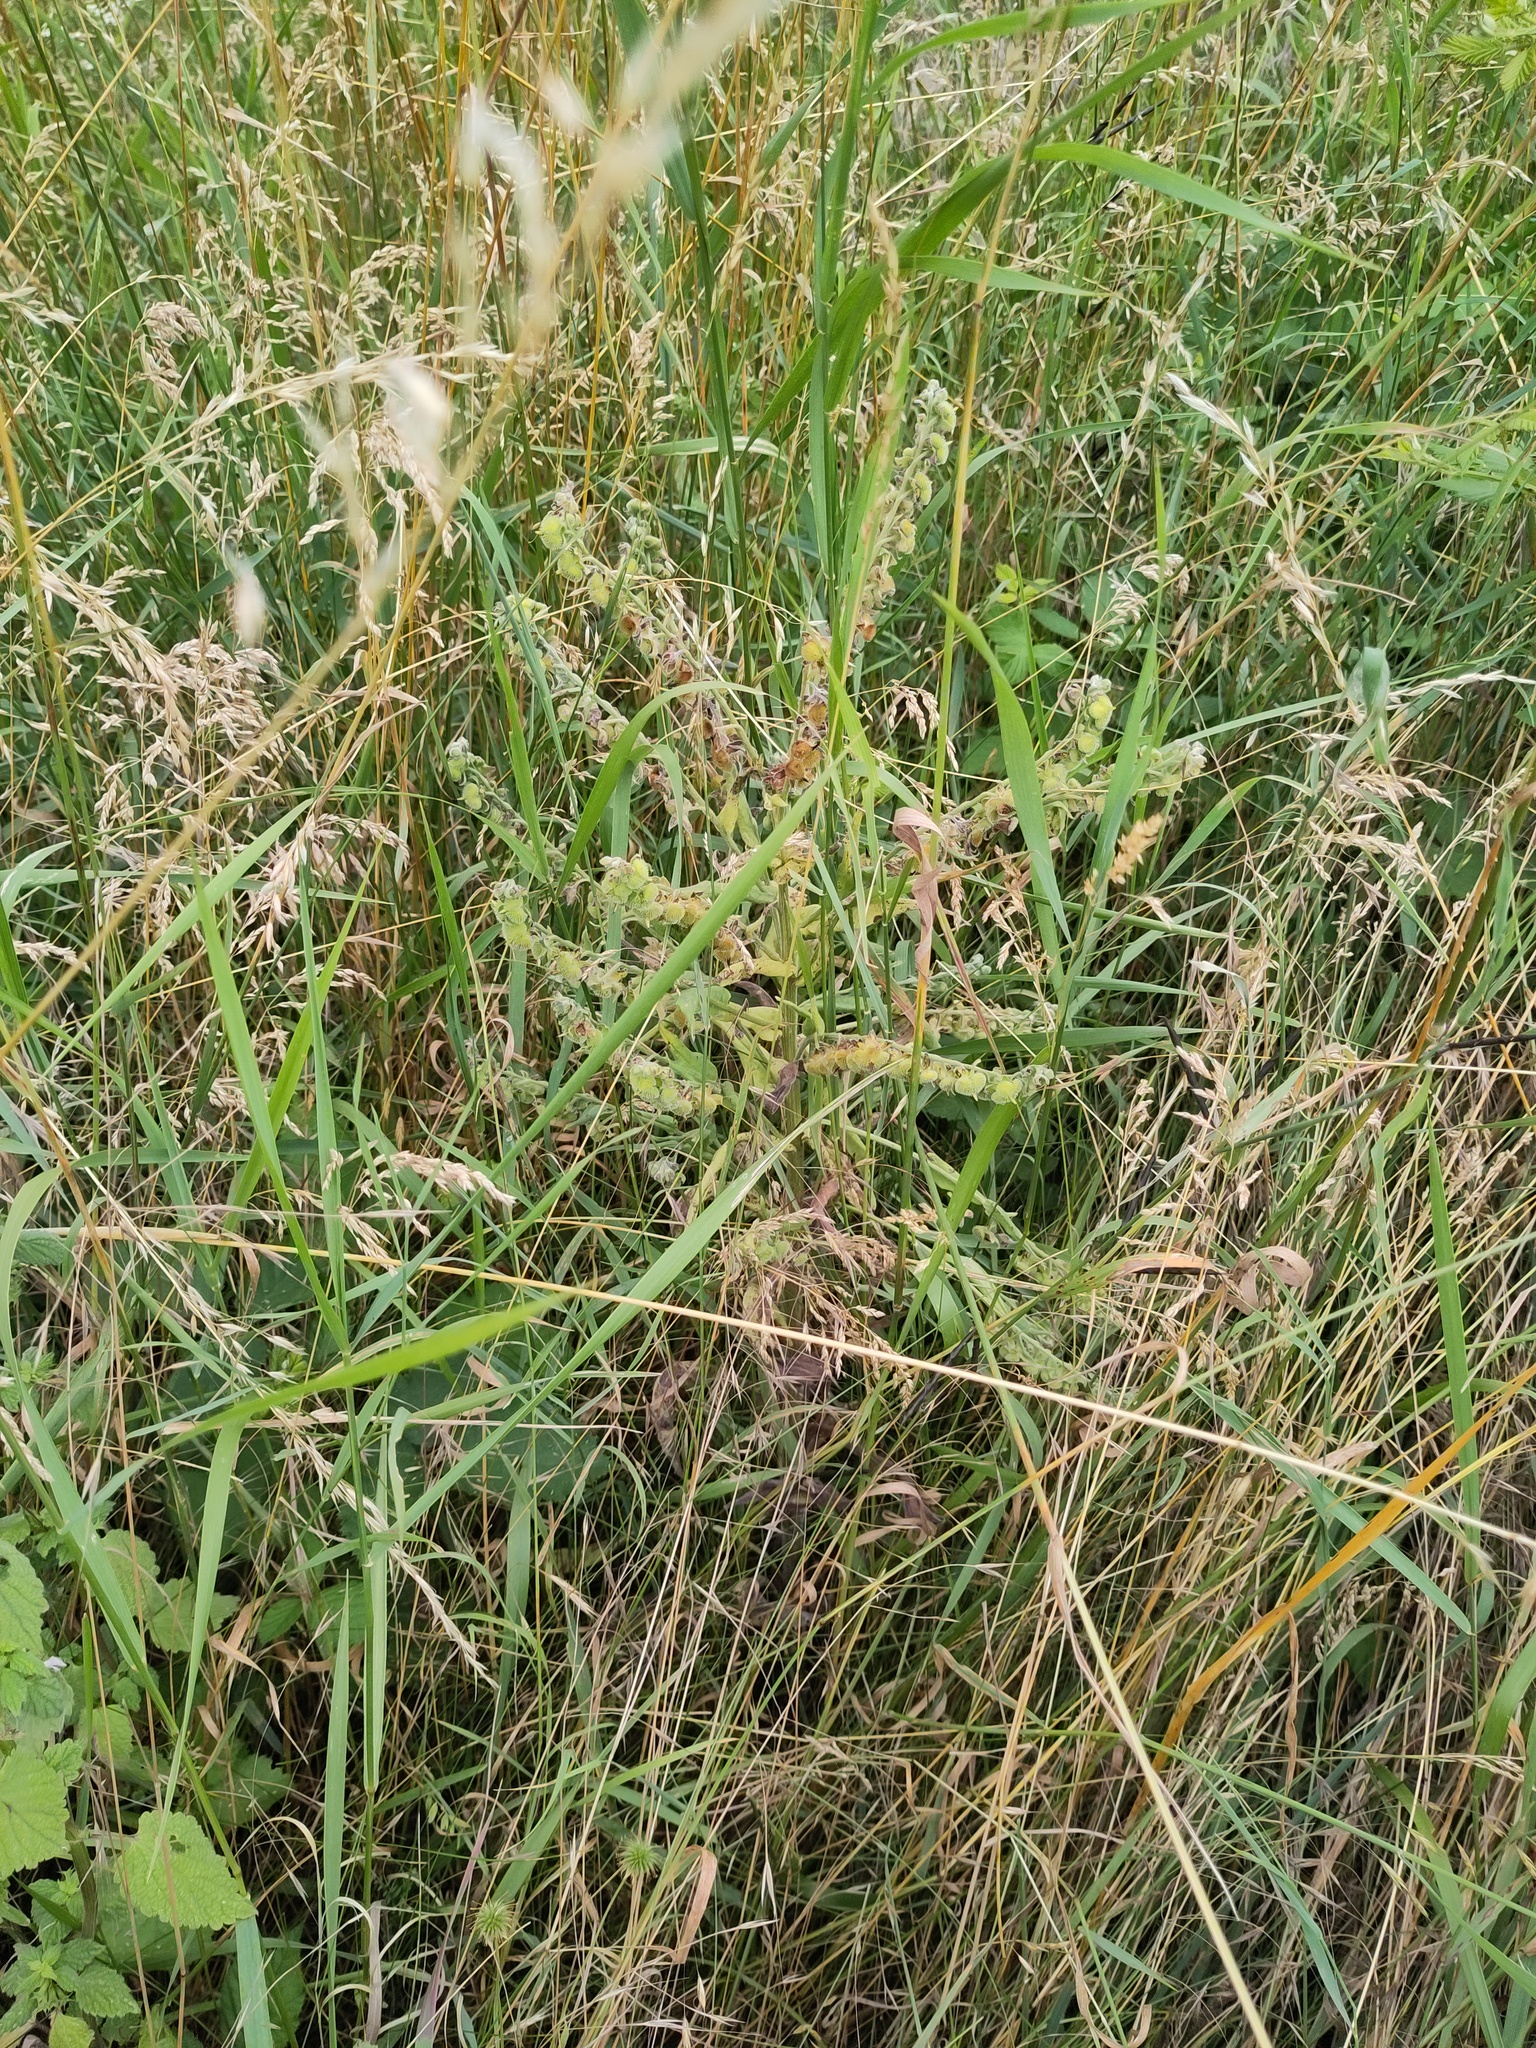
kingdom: Plantae
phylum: Tracheophyta
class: Magnoliopsida
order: Boraginales
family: Boraginaceae
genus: Cynoglossum
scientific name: Cynoglossum officinale
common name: Hound's-tongue
